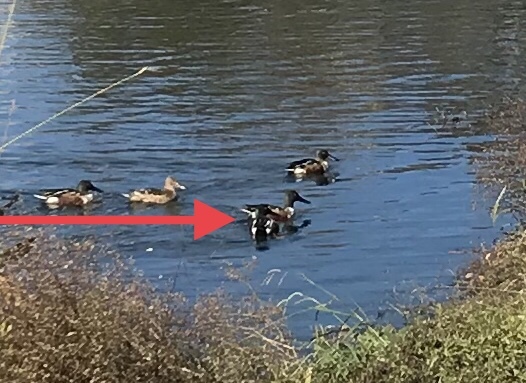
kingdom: Animalia
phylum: Chordata
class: Aves
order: Anseriformes
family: Anatidae
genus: Spatula
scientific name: Spatula clypeata
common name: Northern shoveler
